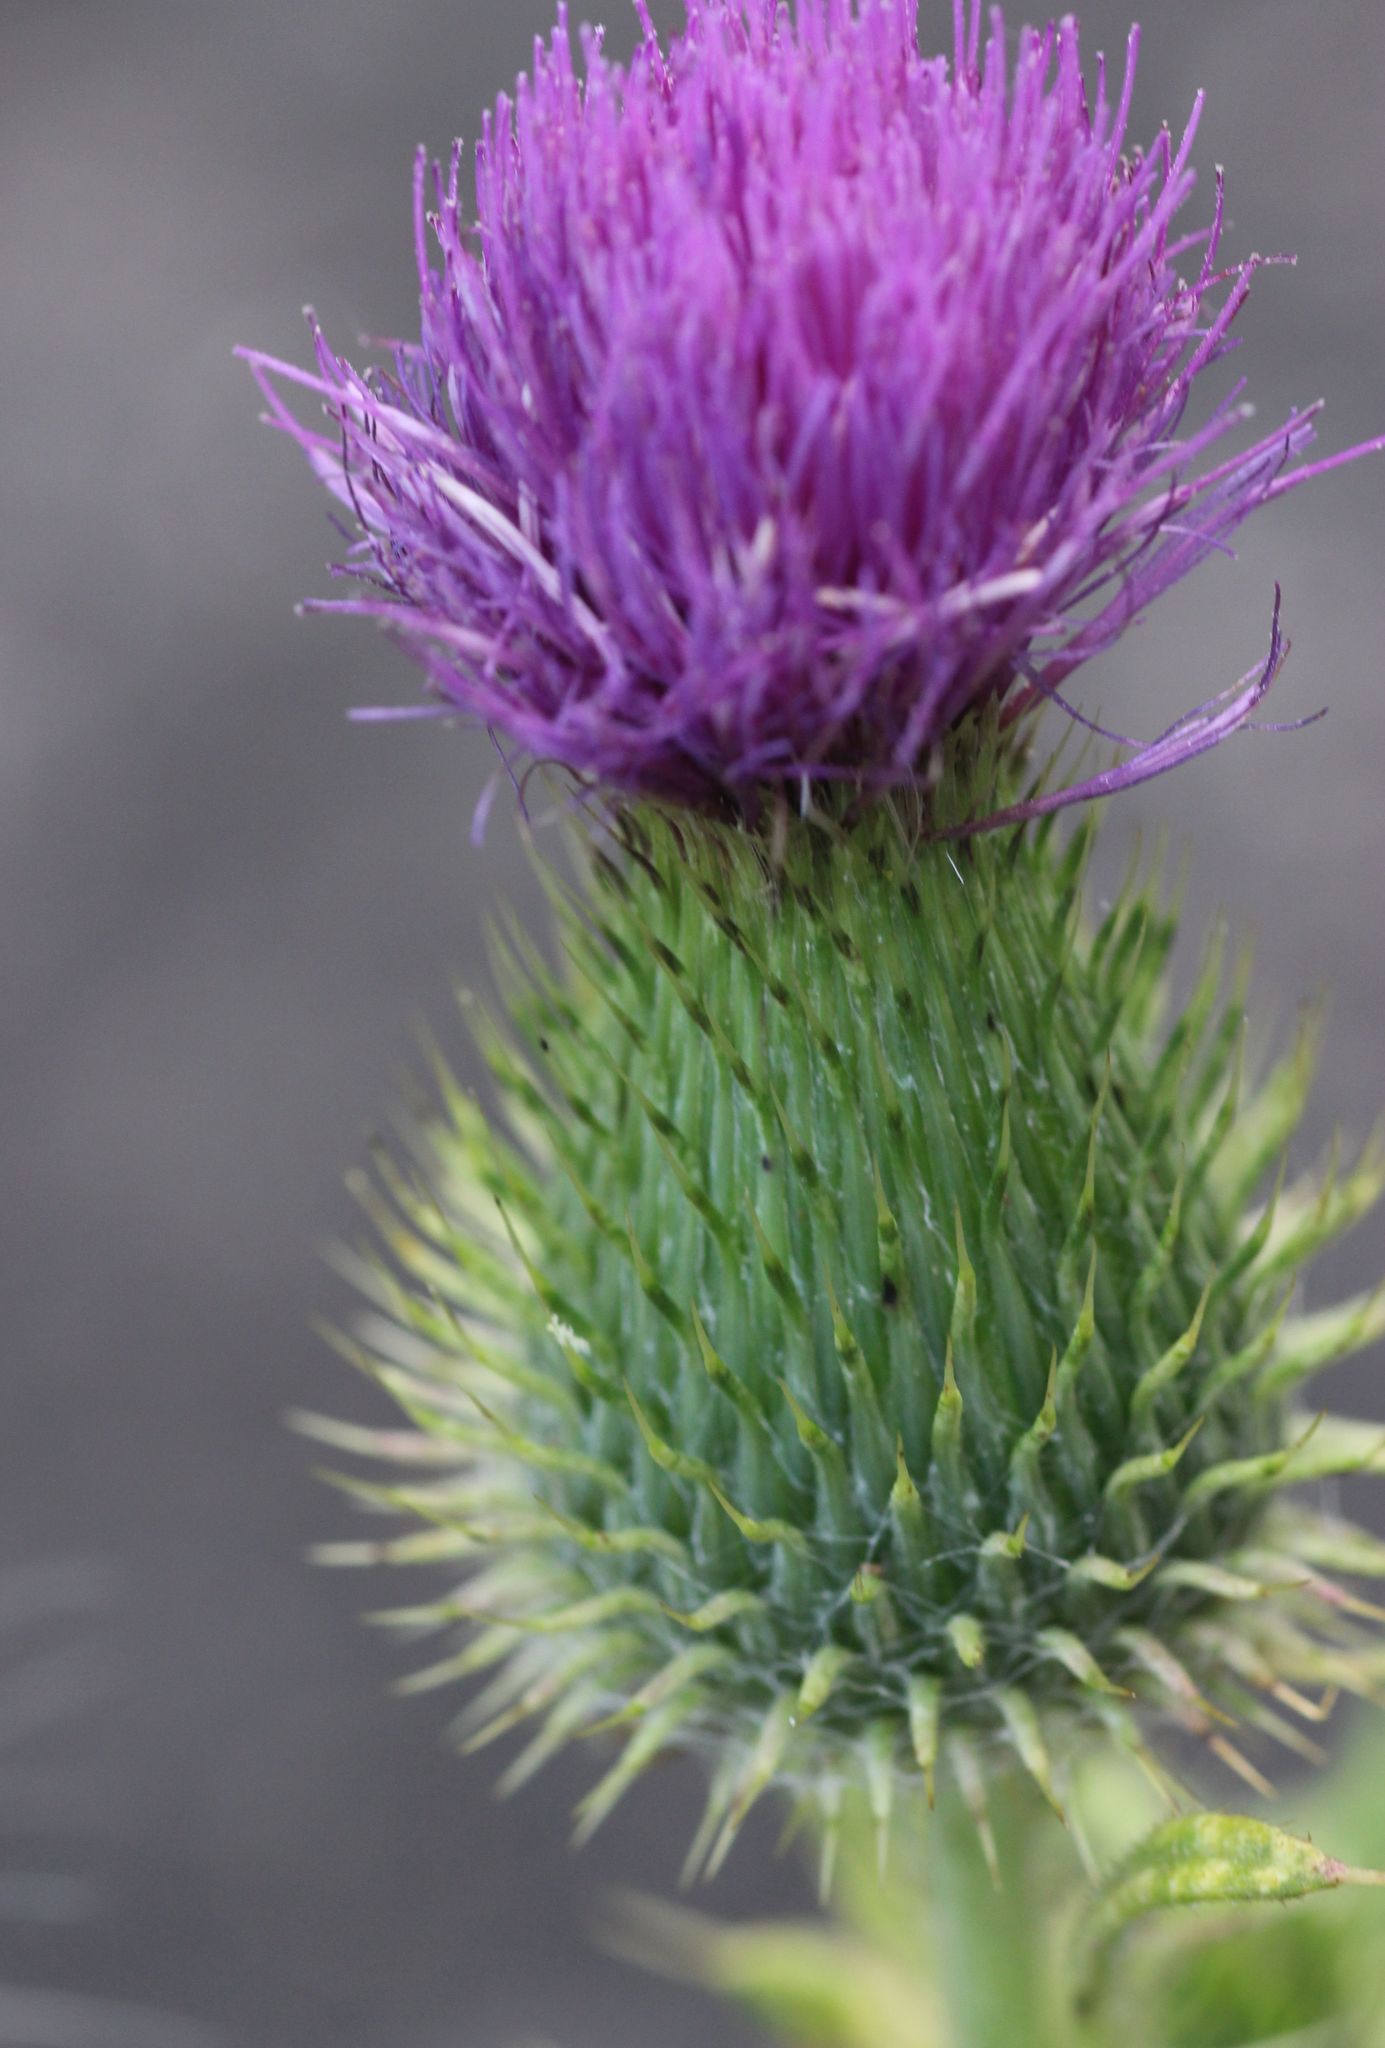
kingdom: Plantae
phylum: Tracheophyta
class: Magnoliopsida
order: Asterales
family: Asteraceae
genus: Cirsium
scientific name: Cirsium vulgare
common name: Bull thistle
